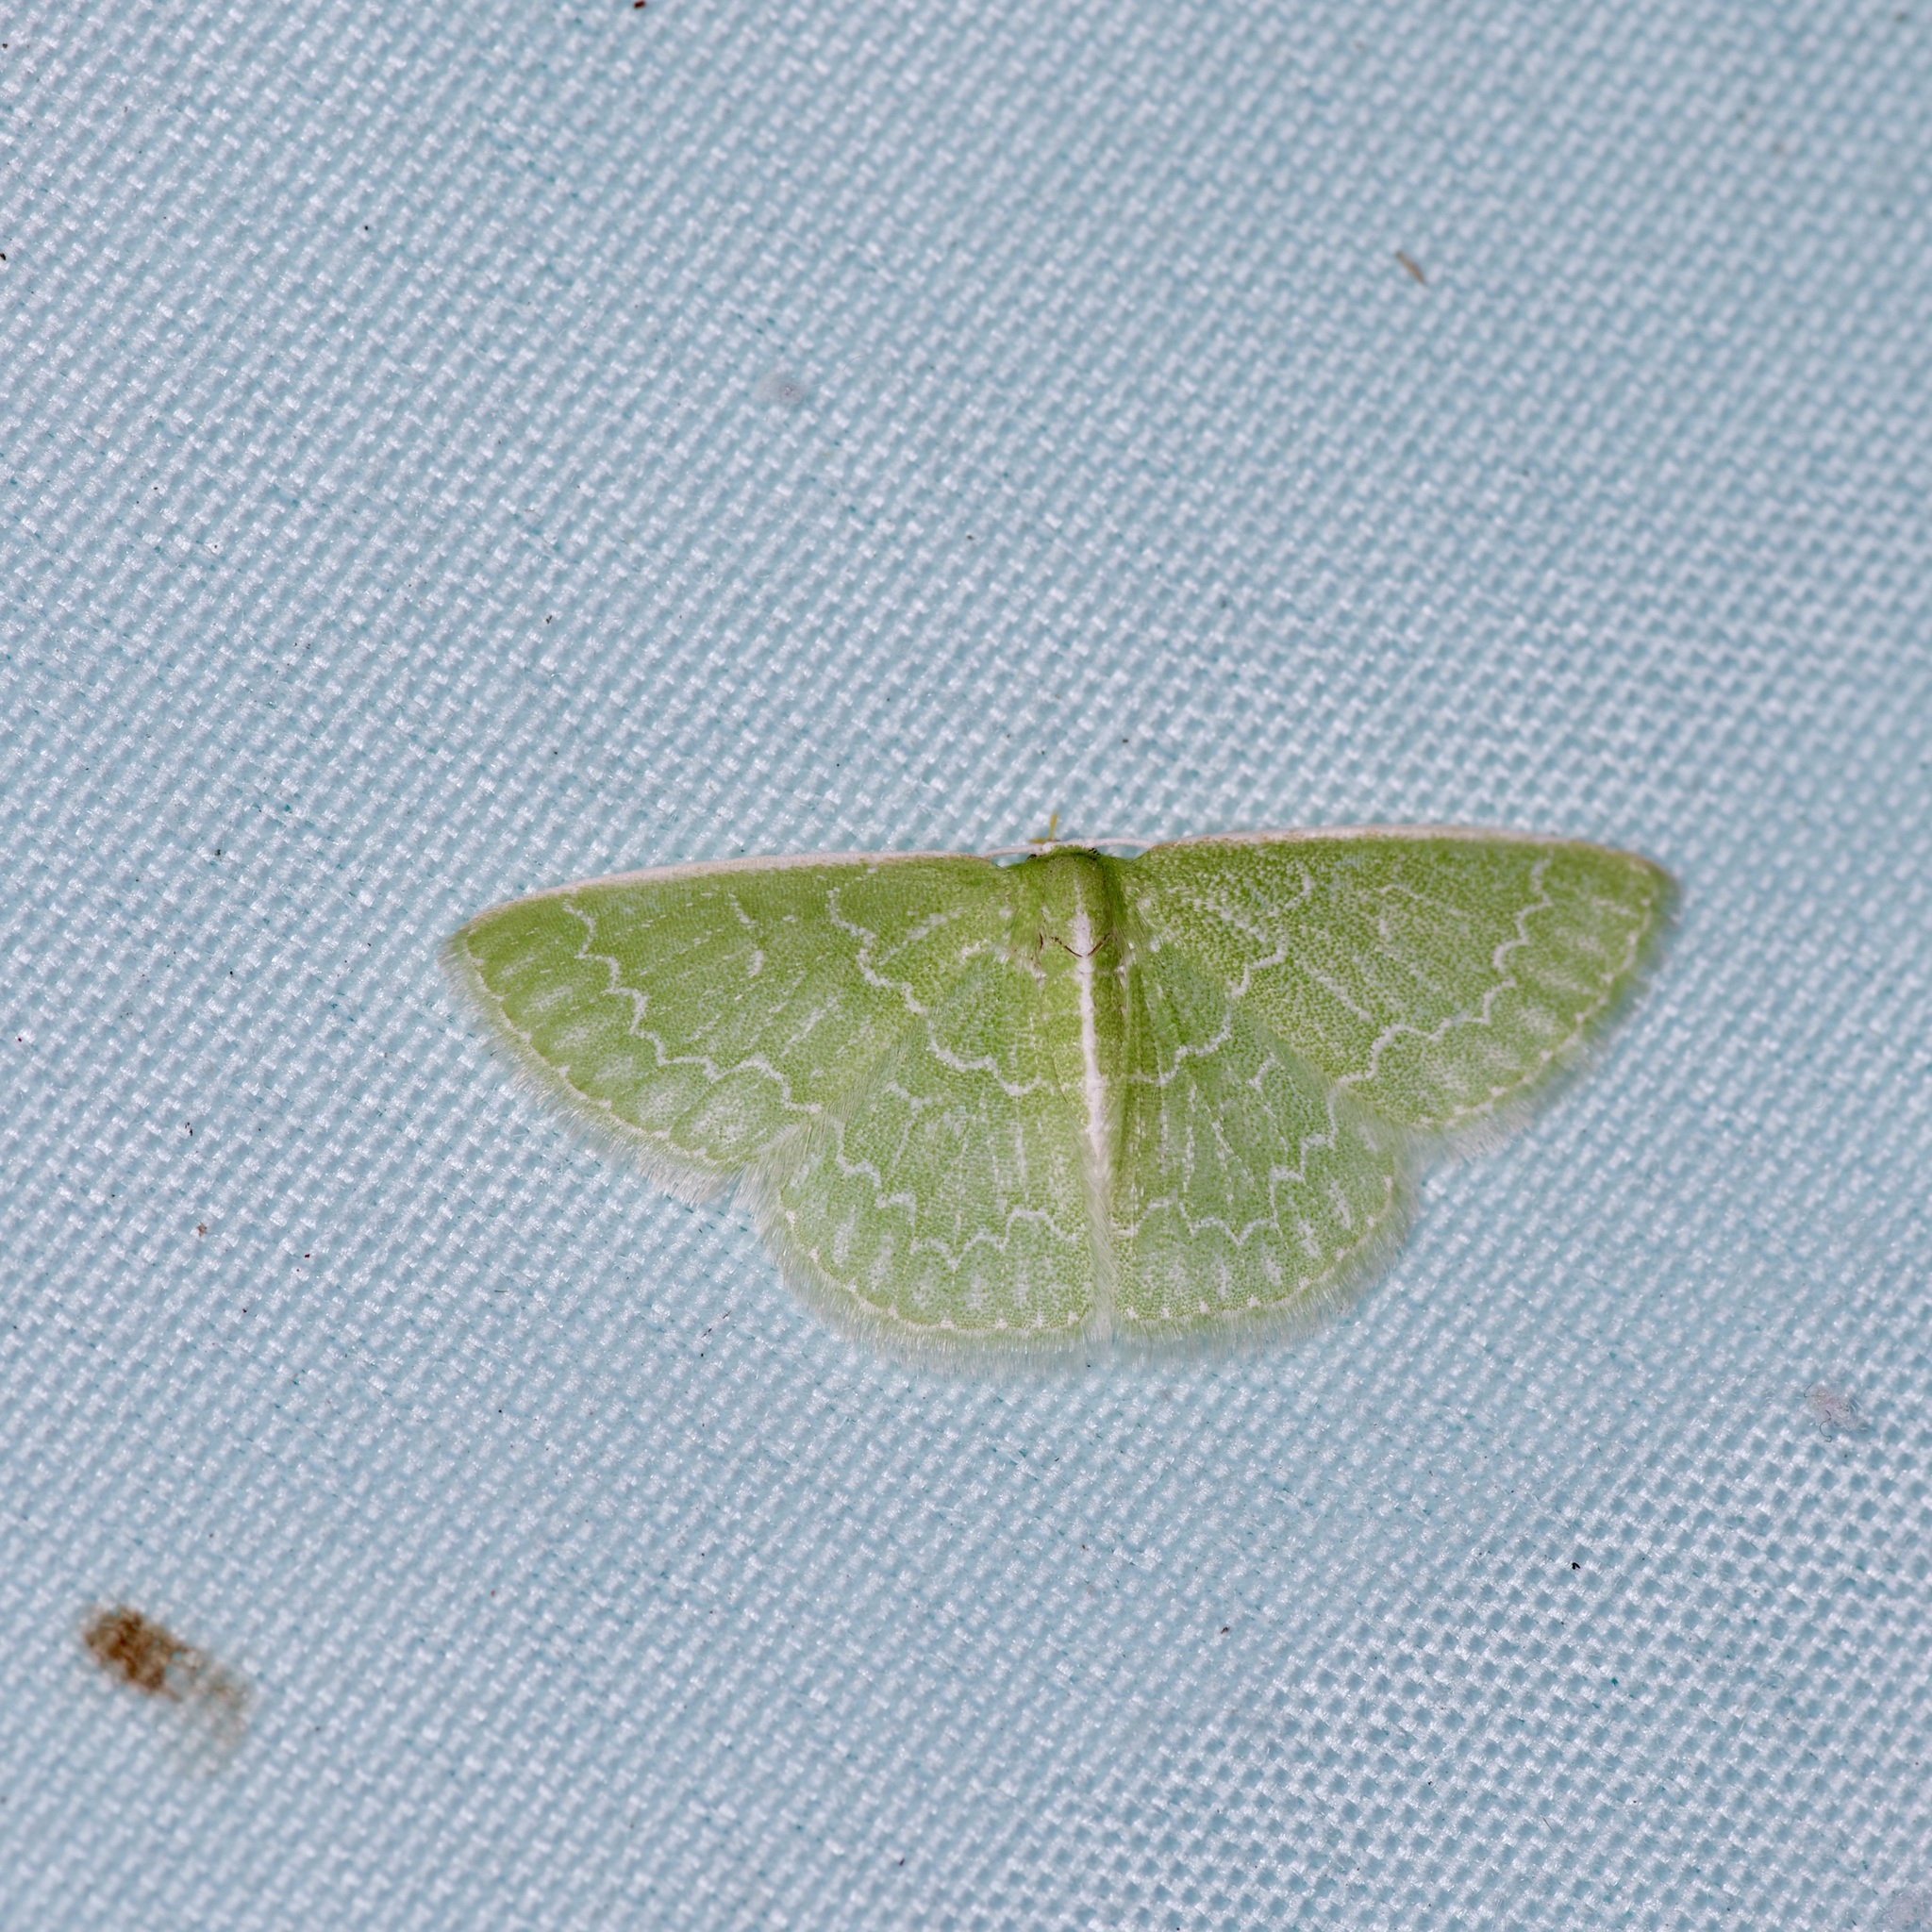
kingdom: Animalia
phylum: Arthropoda
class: Insecta
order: Lepidoptera
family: Geometridae
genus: Synchlora
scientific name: Synchlora frondaria
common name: Southern emerald
